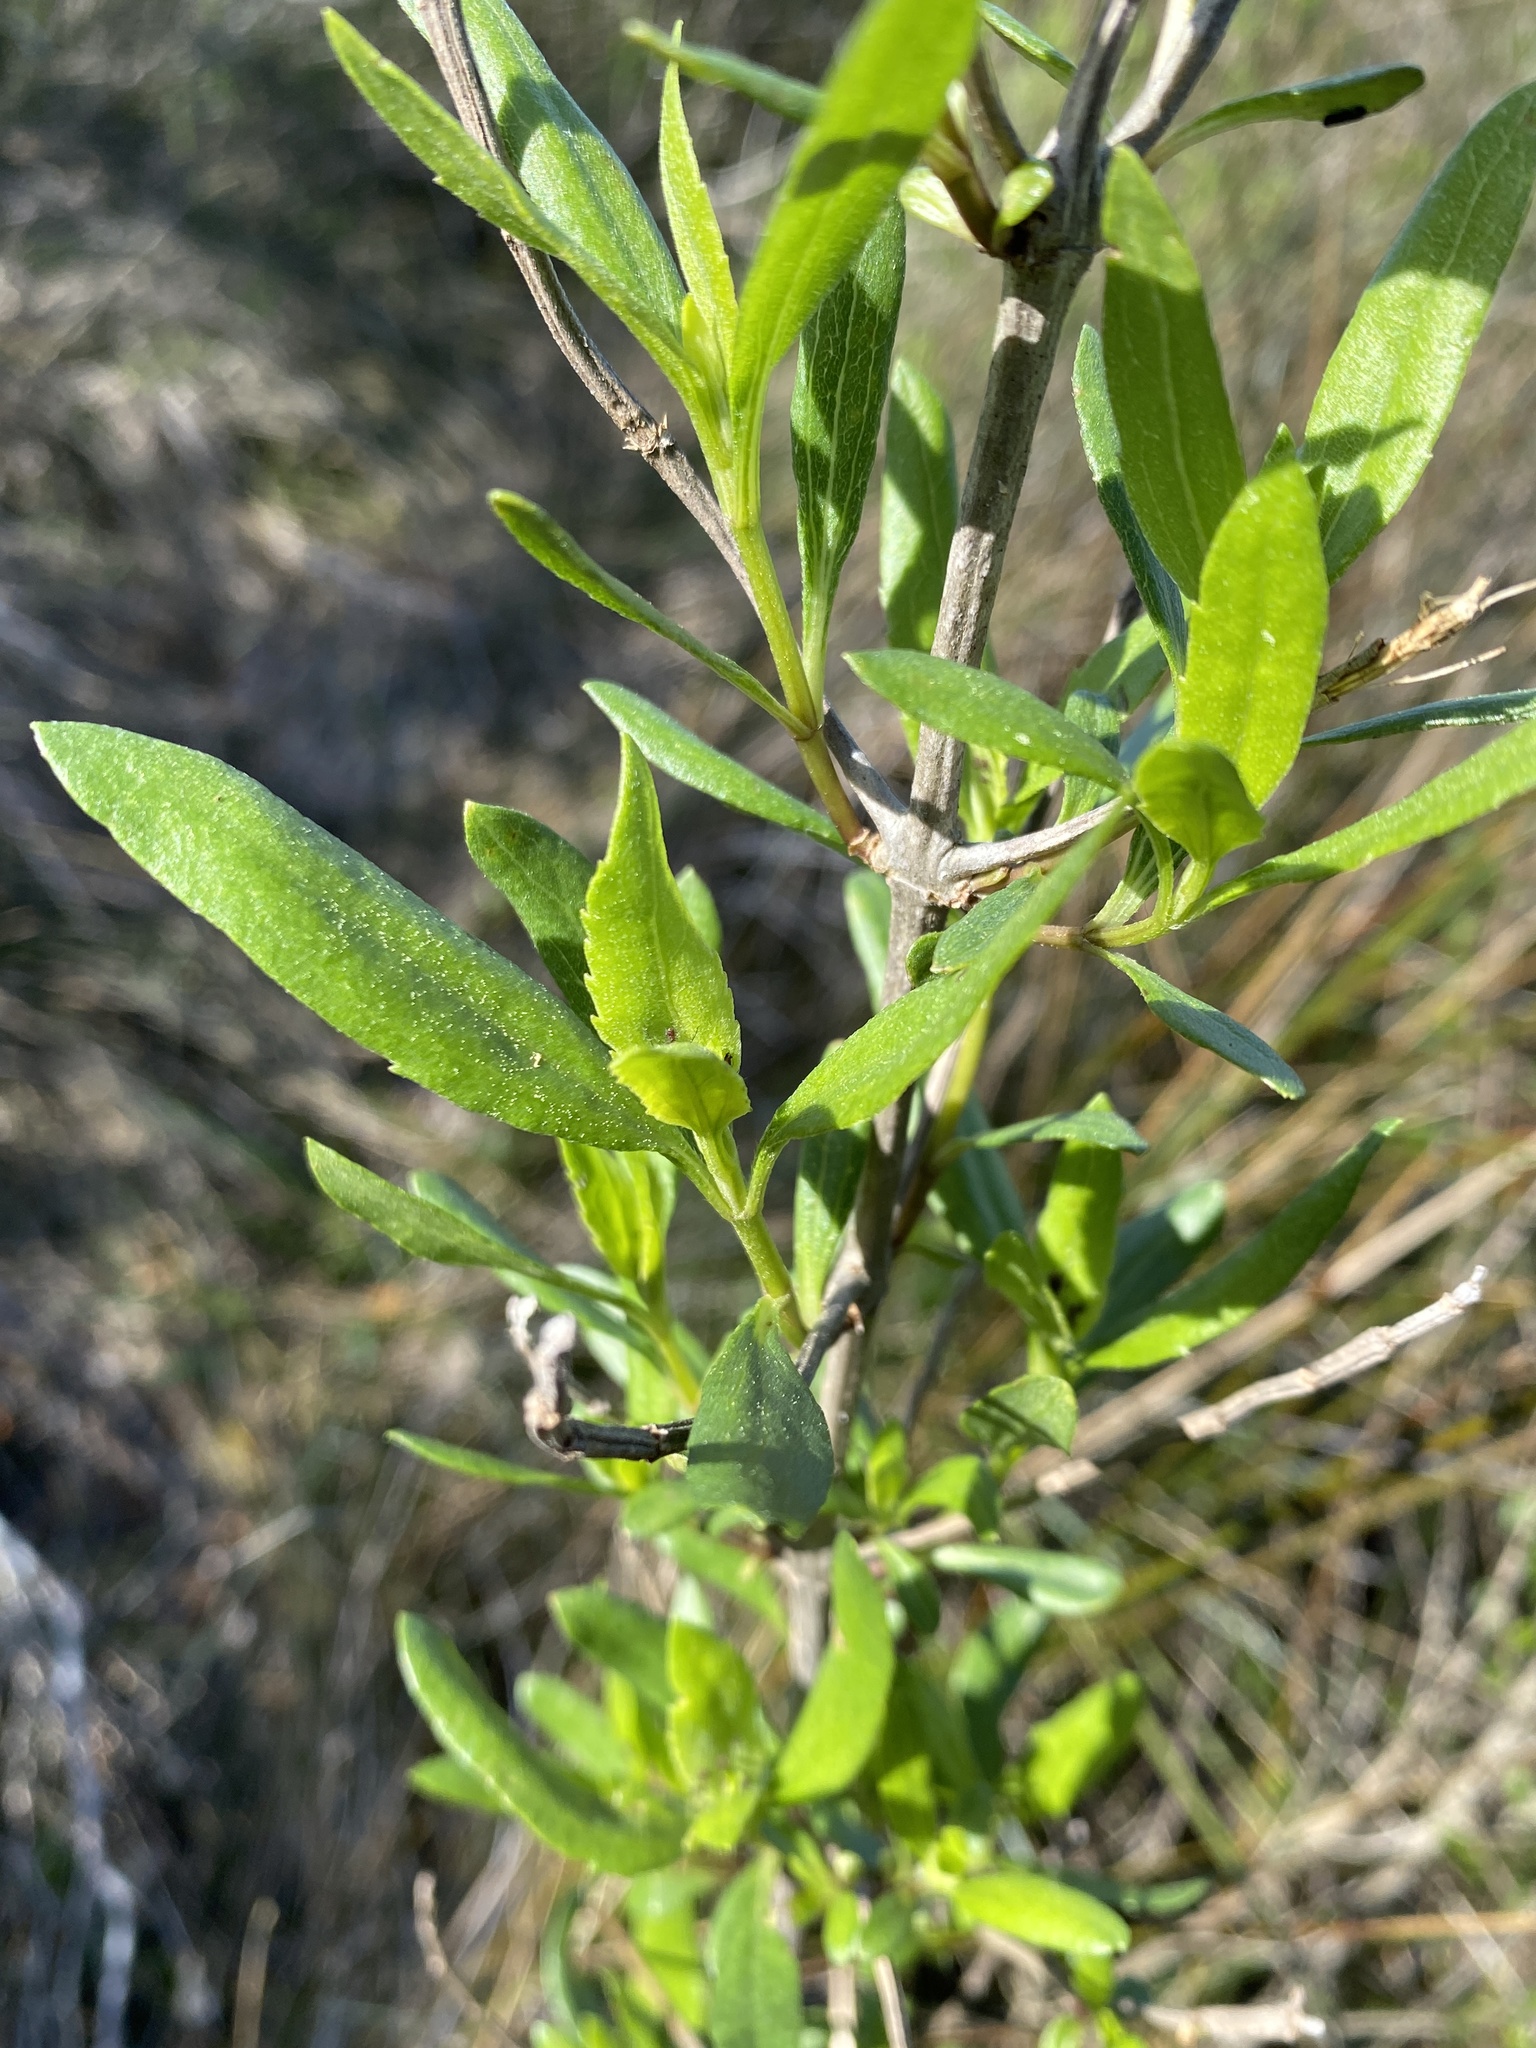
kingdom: Plantae
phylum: Tracheophyta
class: Magnoliopsida
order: Asterales
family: Asteraceae
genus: Iva
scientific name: Iva frutescens
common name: Big-leaved marsh-elder
